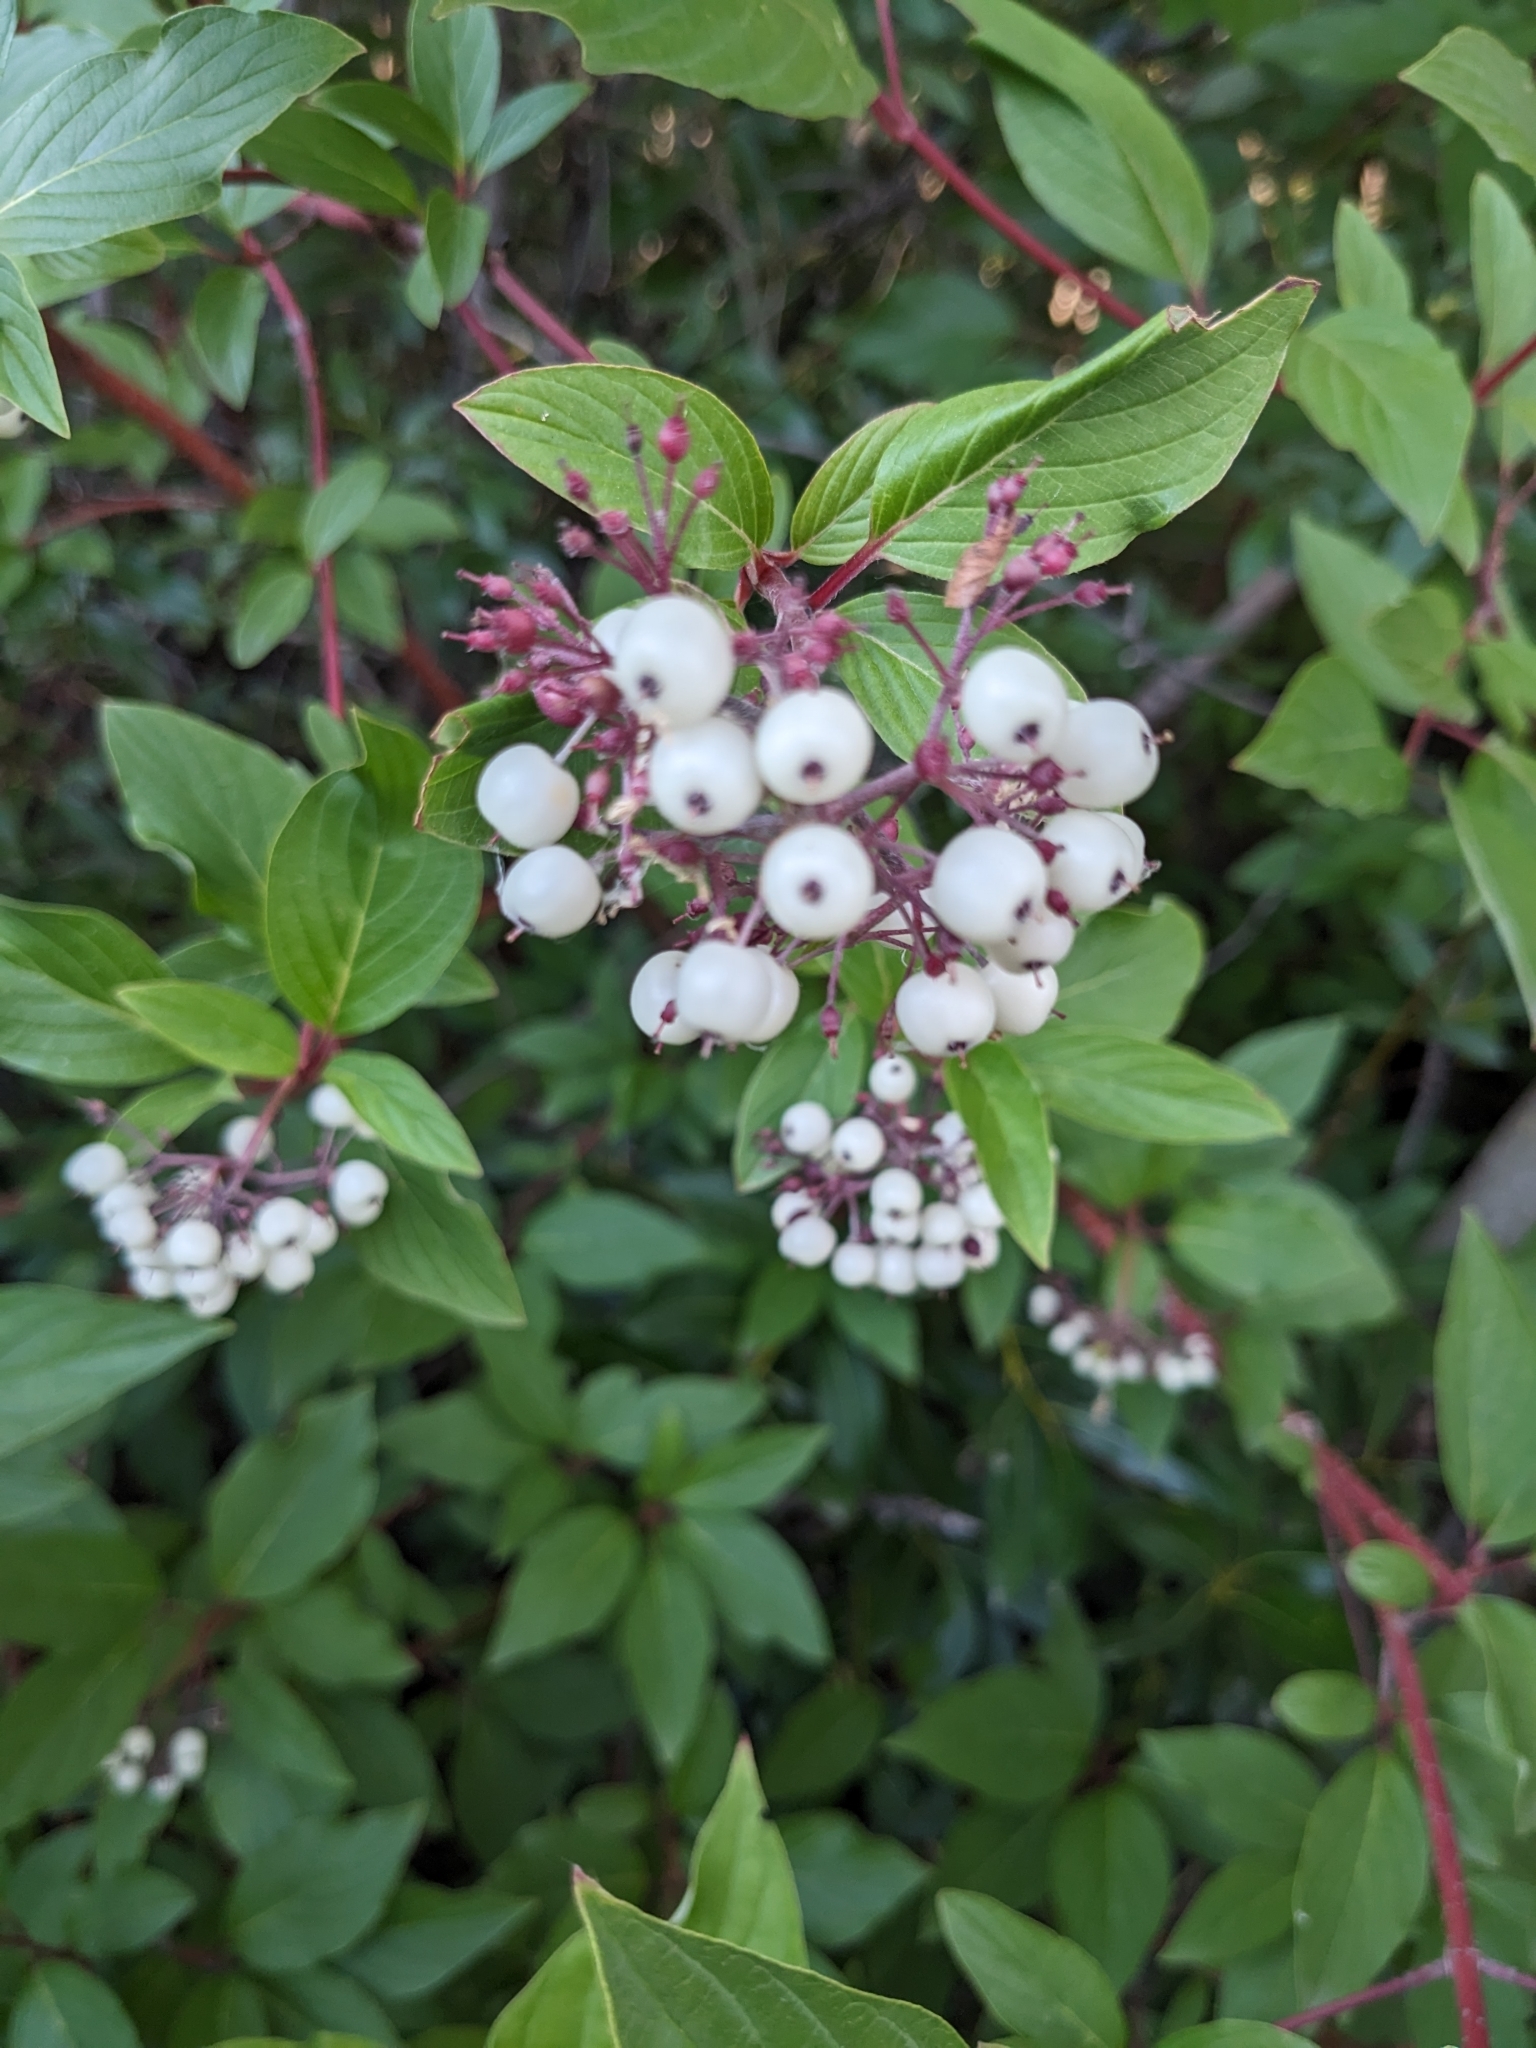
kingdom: Plantae
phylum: Tracheophyta
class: Magnoliopsida
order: Cornales
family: Cornaceae
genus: Cornus
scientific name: Cornus sericea
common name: Red-osier dogwood
